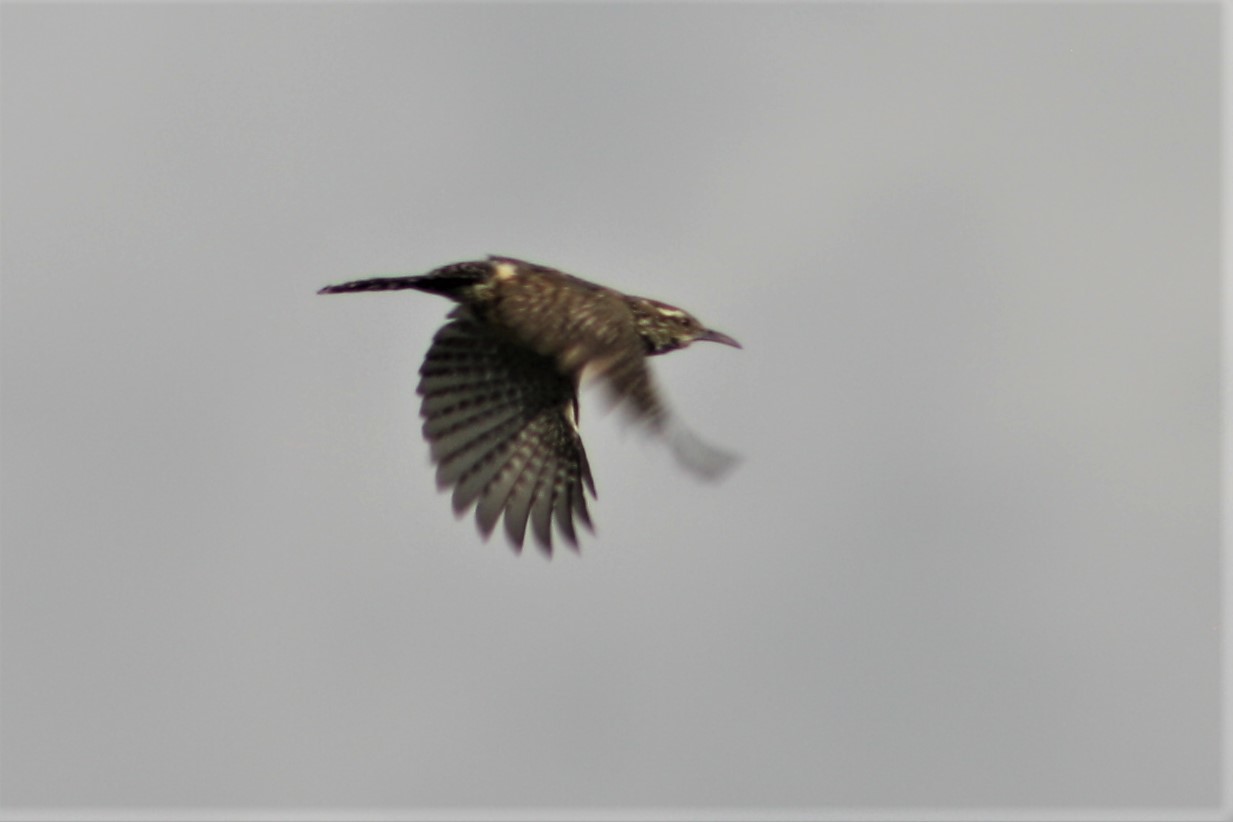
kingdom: Animalia
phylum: Chordata
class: Aves
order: Passeriformes
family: Troglodytidae
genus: Campylorhynchus
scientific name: Campylorhynchus brunneicapillus
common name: Cactus wren
